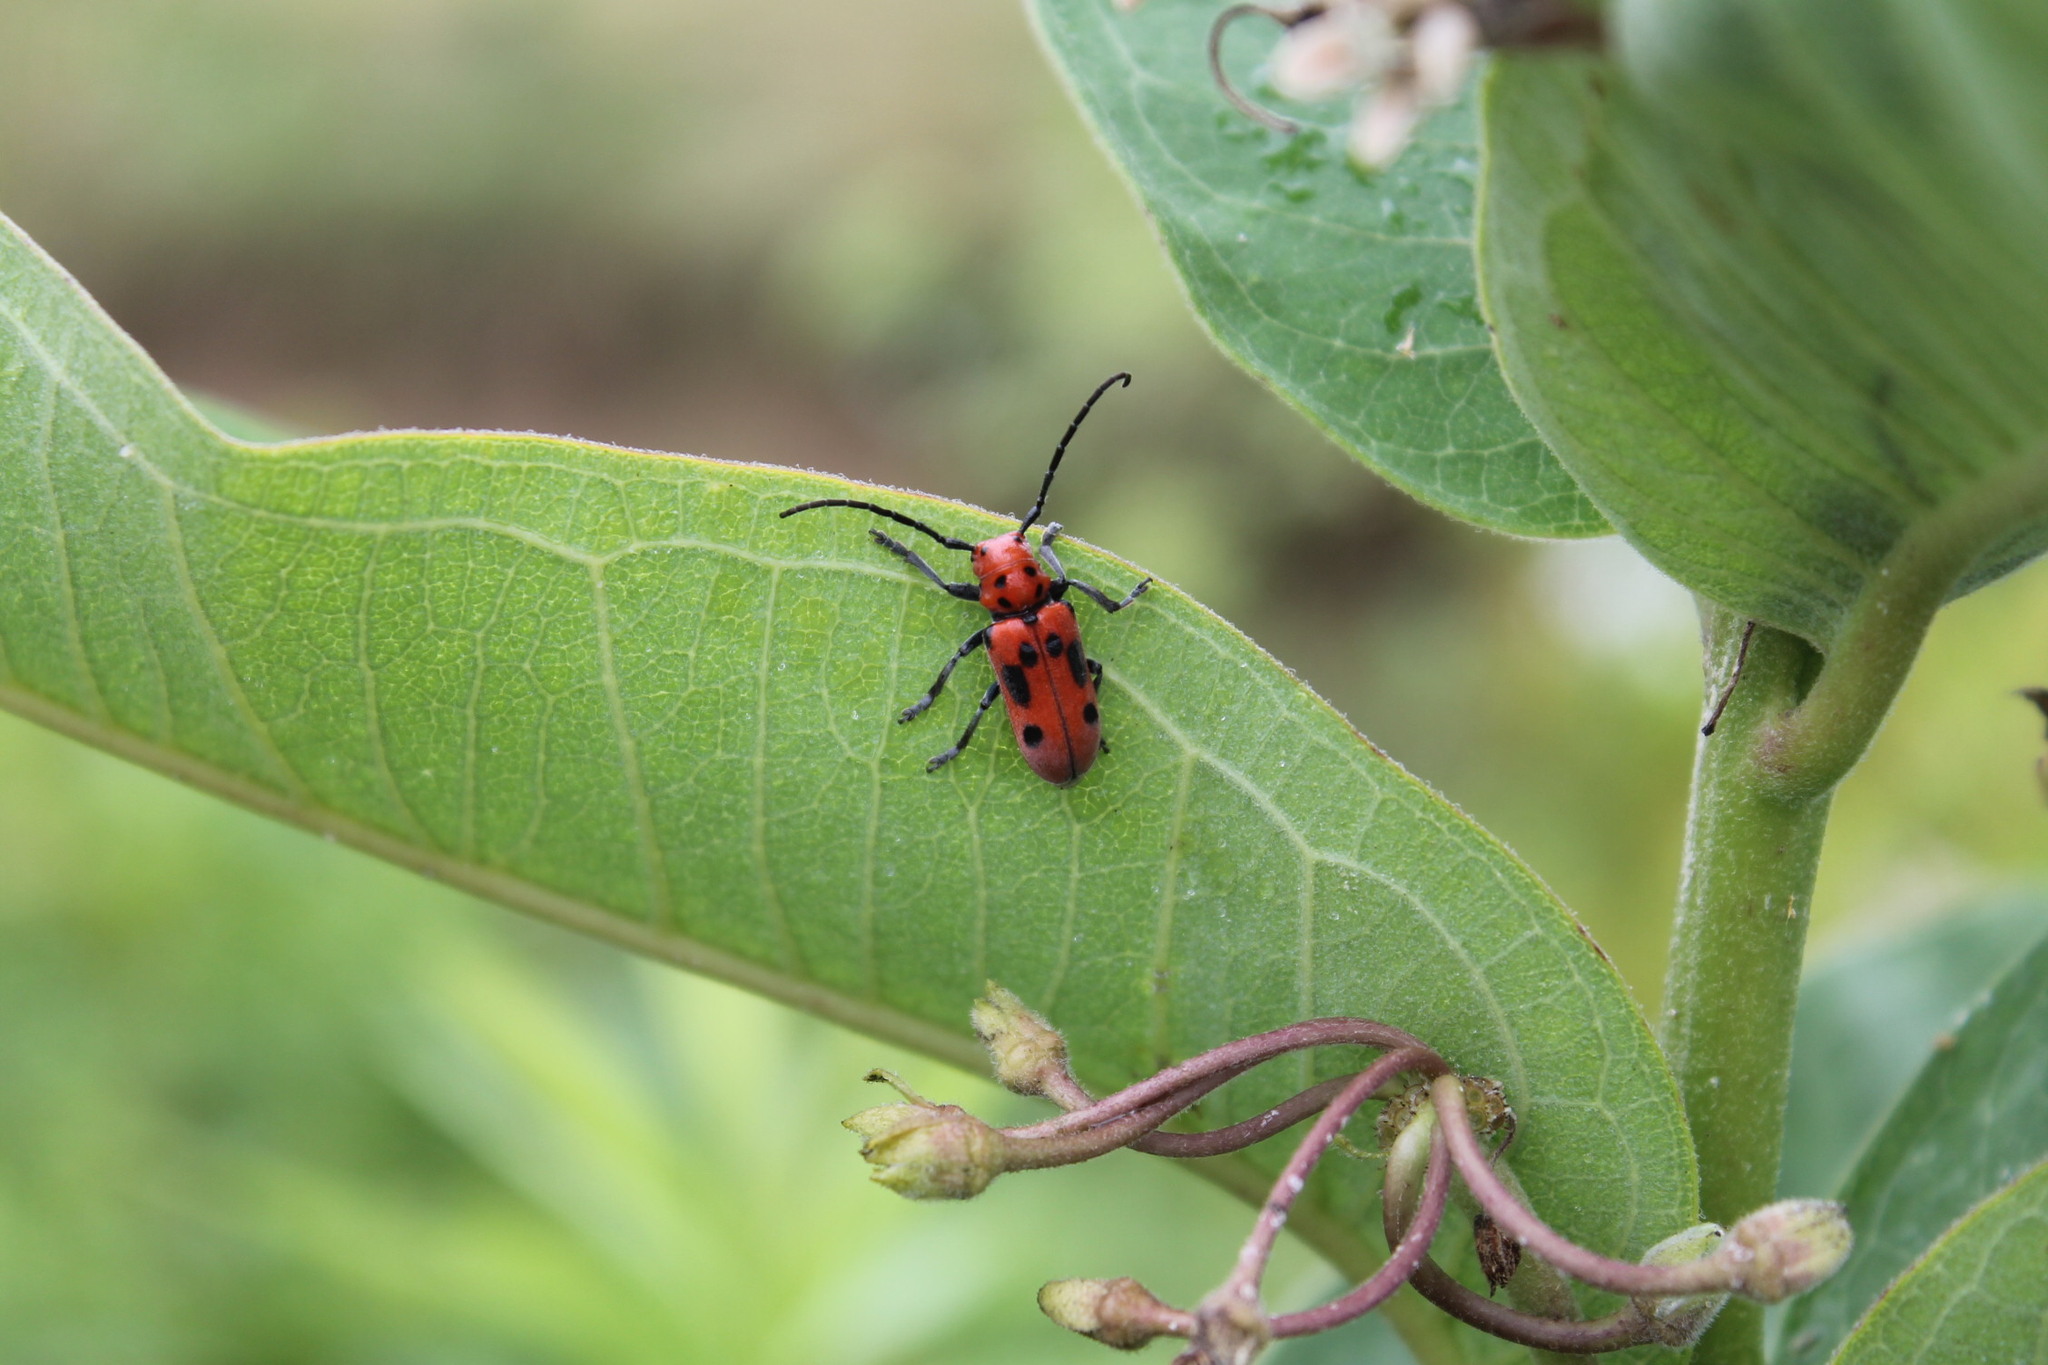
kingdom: Animalia
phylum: Arthropoda
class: Insecta
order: Coleoptera
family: Cerambycidae
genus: Tetraopes
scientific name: Tetraopes tetrophthalmus
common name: Red milkweed beetle
